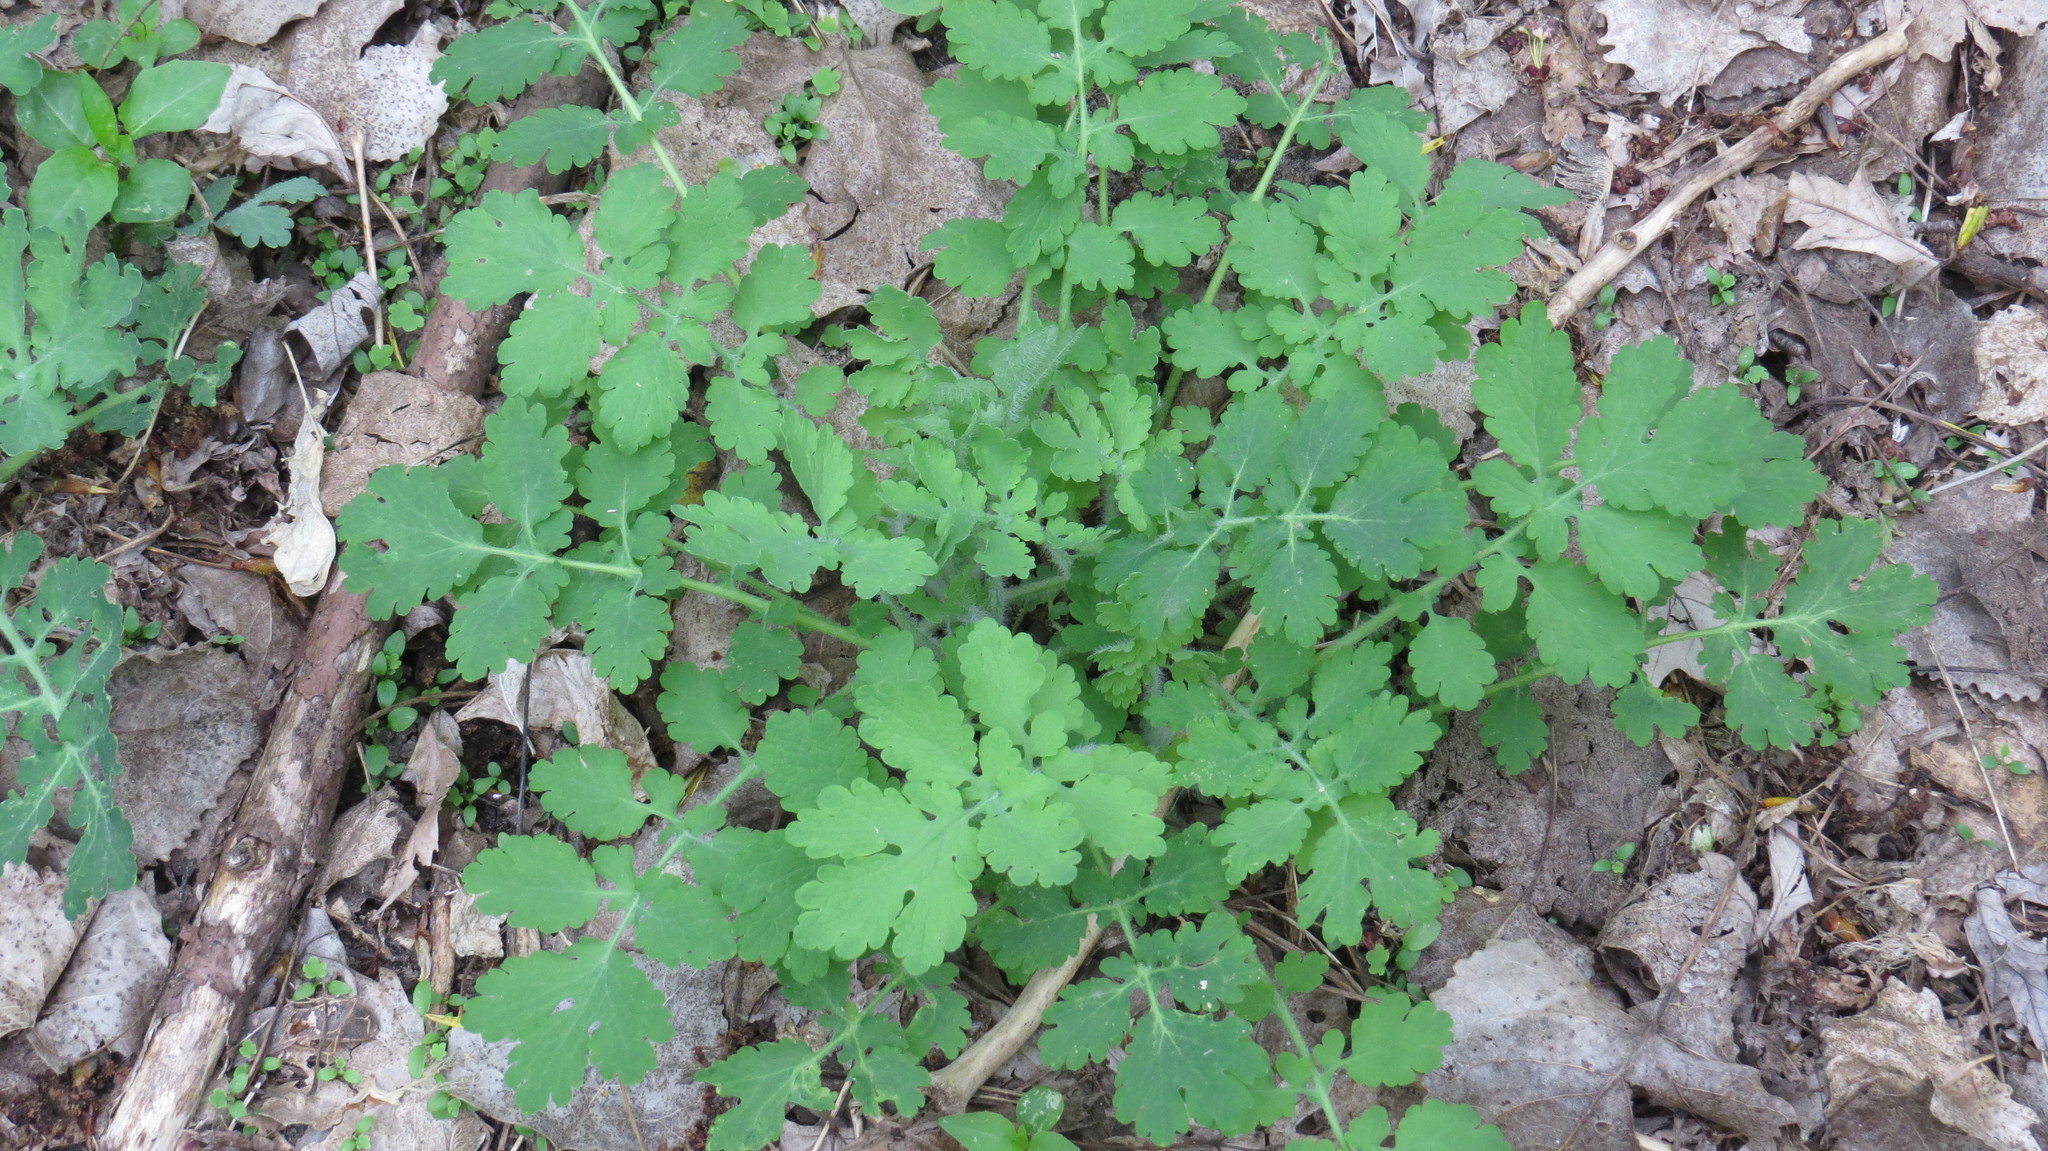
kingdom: Plantae
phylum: Tracheophyta
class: Magnoliopsida
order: Ranunculales
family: Papaveraceae
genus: Chelidonium
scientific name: Chelidonium majus
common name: Greater celandine
